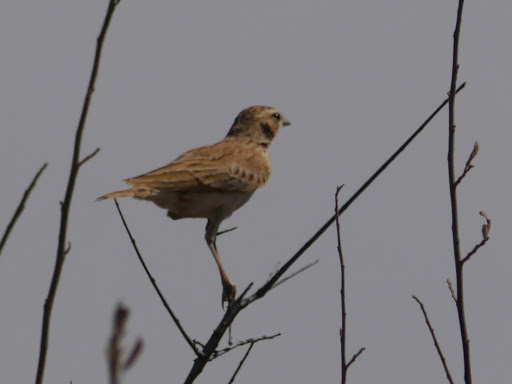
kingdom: Animalia
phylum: Chordata
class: Aves
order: Passeriformes
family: Alaudidae
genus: Calendulauda
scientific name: Calendulauda africanoides
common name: Fawn-colored lark
